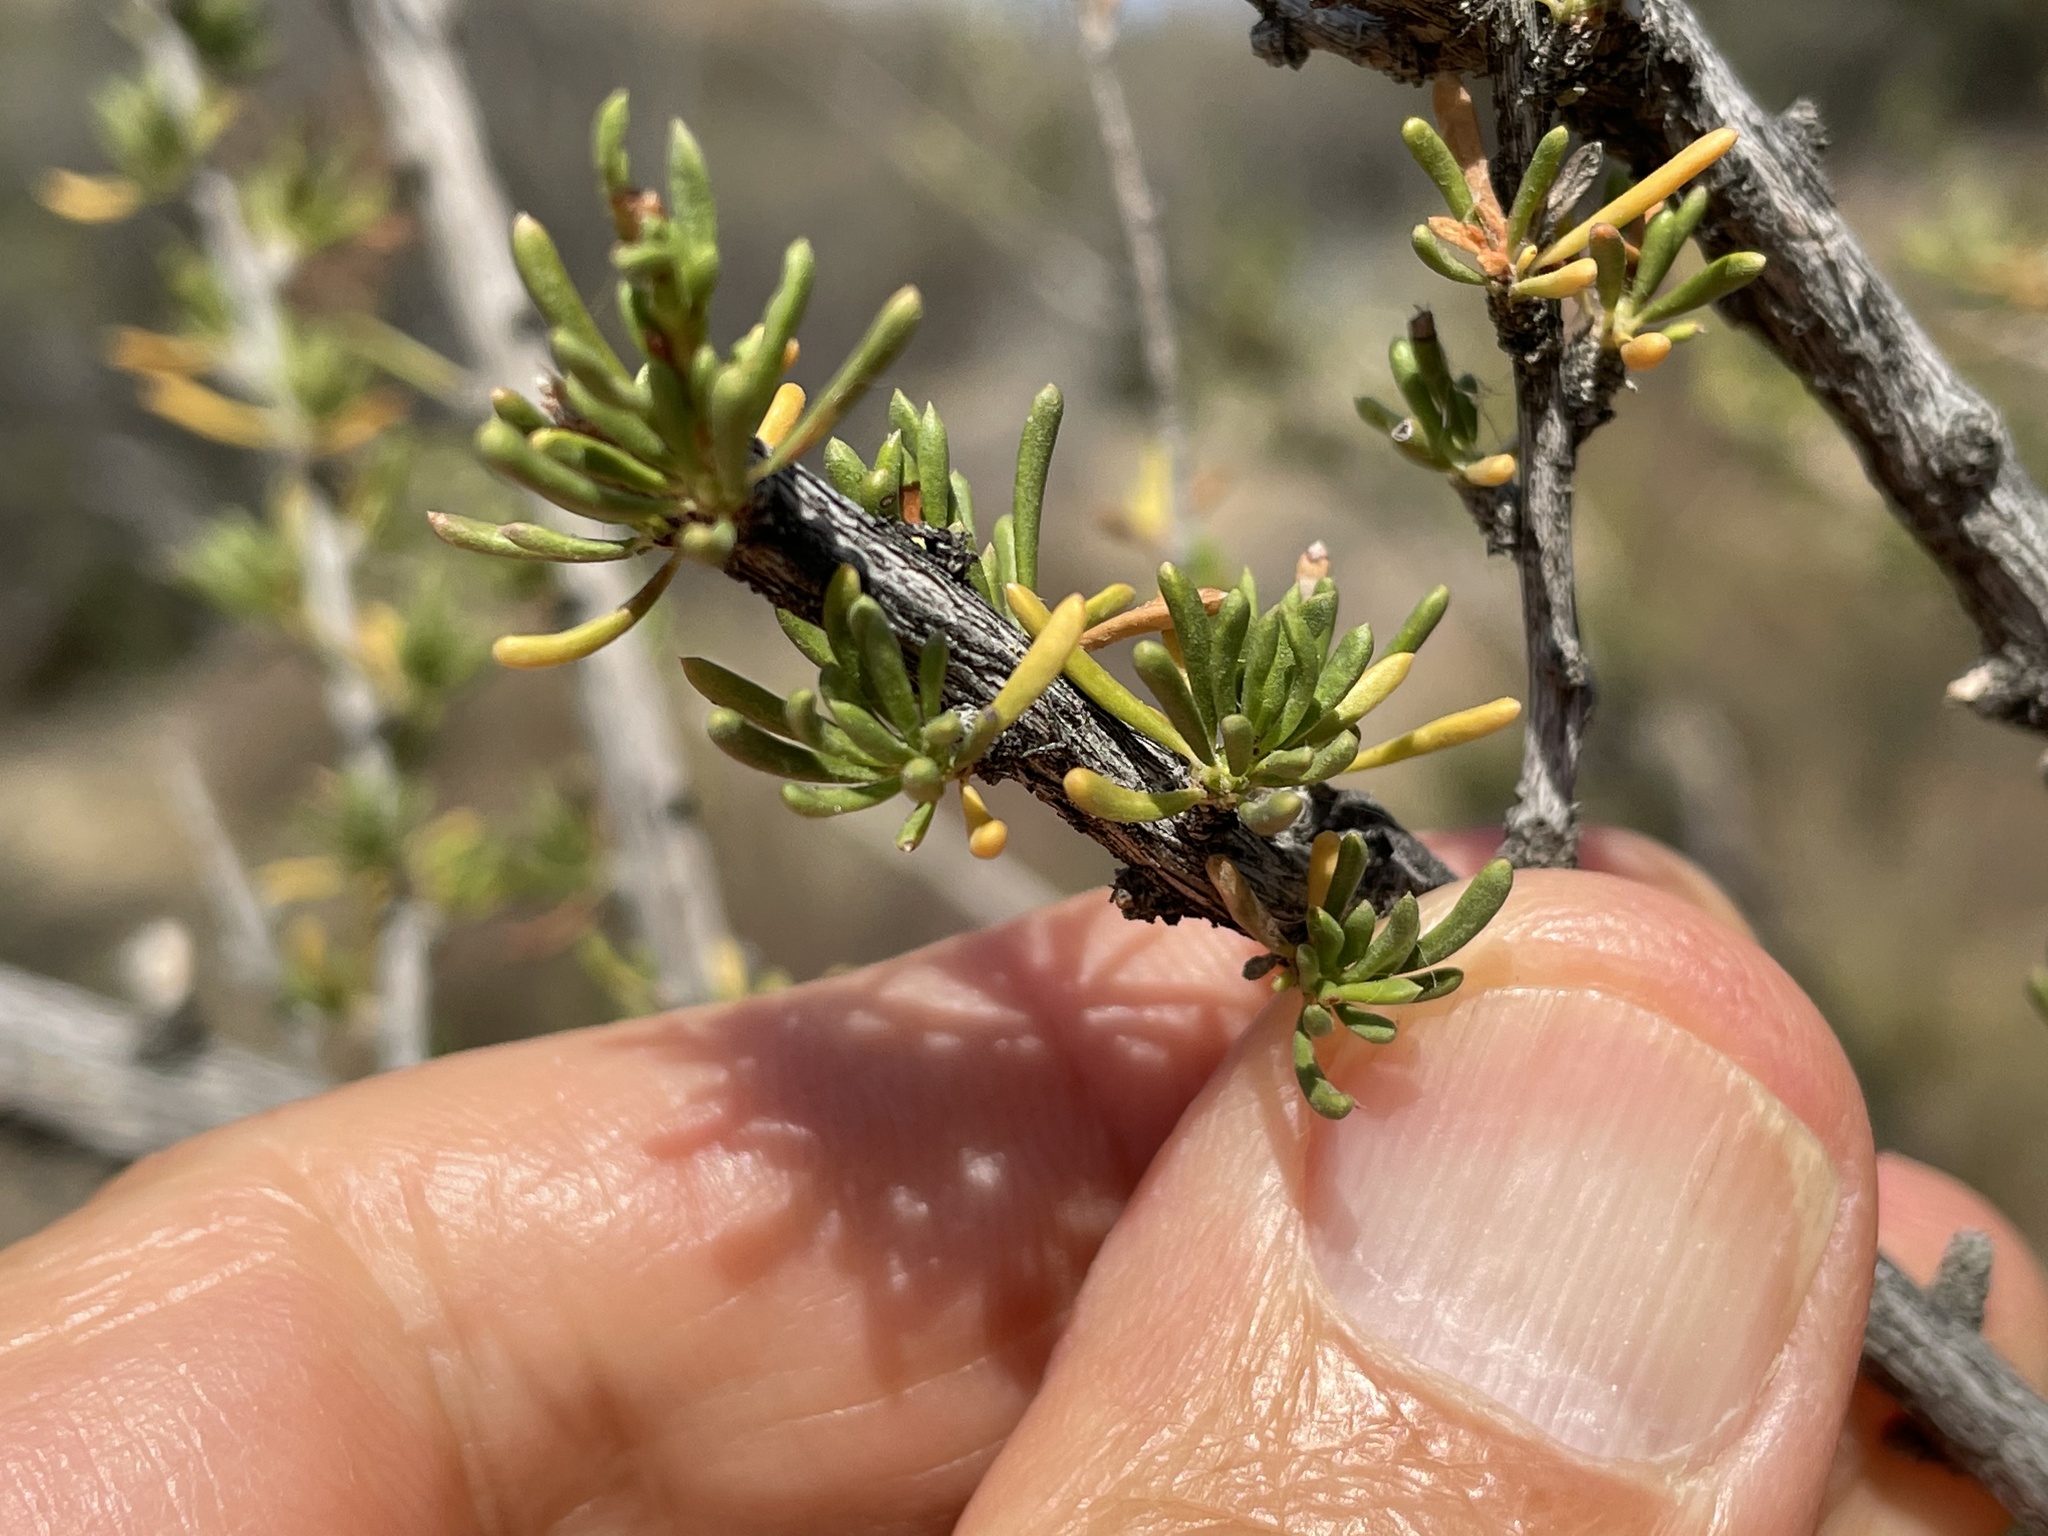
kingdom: Plantae
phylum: Tracheophyta
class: Magnoliopsida
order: Rosales
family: Rosaceae
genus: Adenostoma
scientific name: Adenostoma fasciculatum
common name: Chamise
